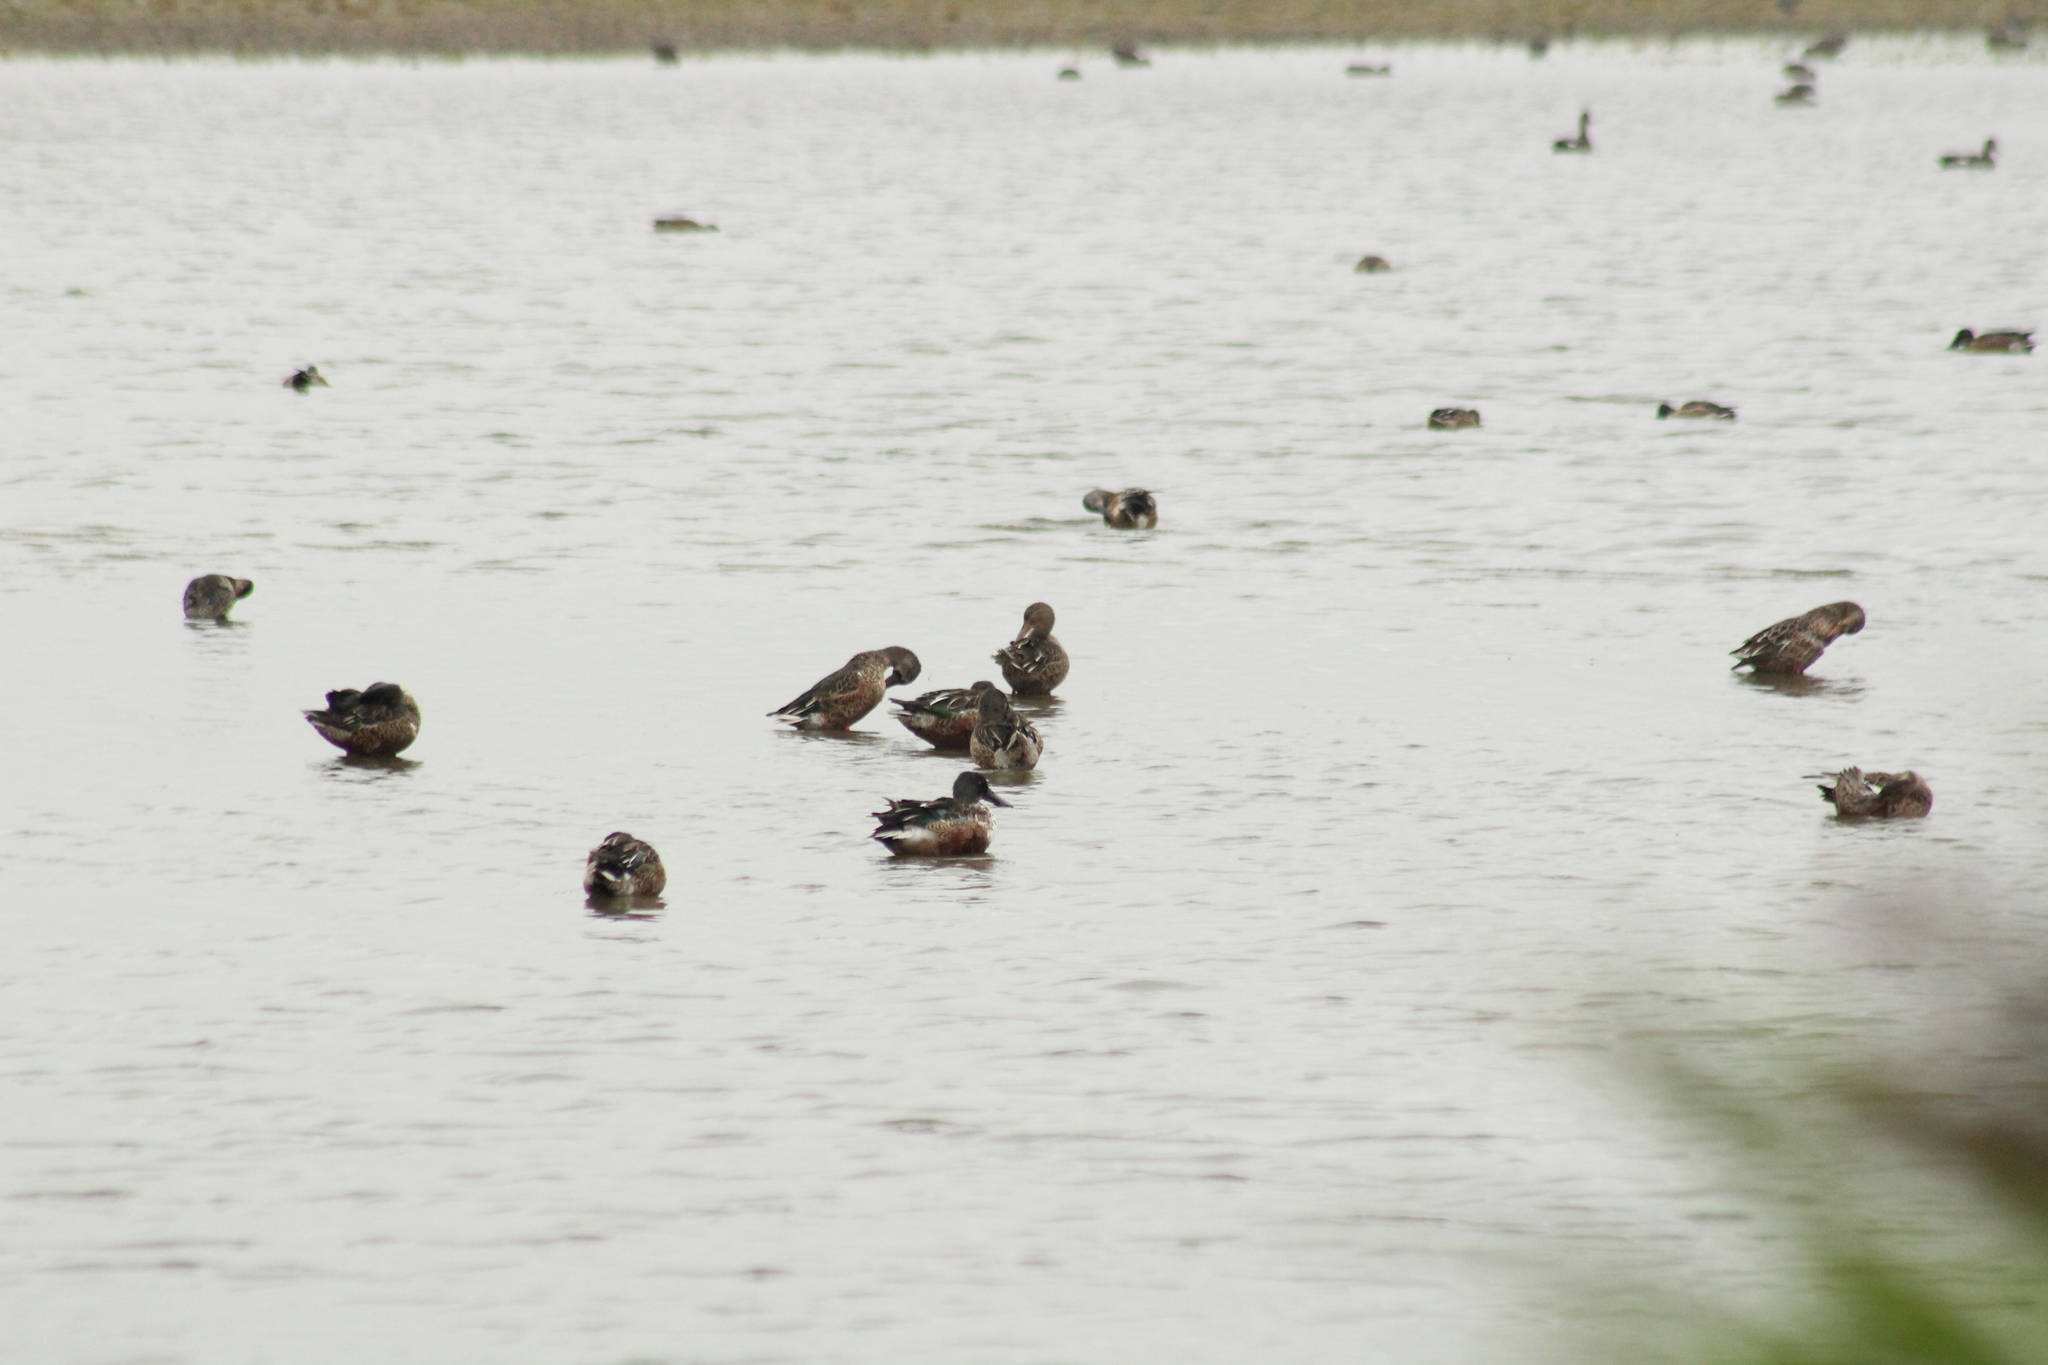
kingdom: Animalia
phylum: Chordata
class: Aves
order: Anseriformes
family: Anatidae
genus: Spatula
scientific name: Spatula clypeata
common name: Northern shoveler
